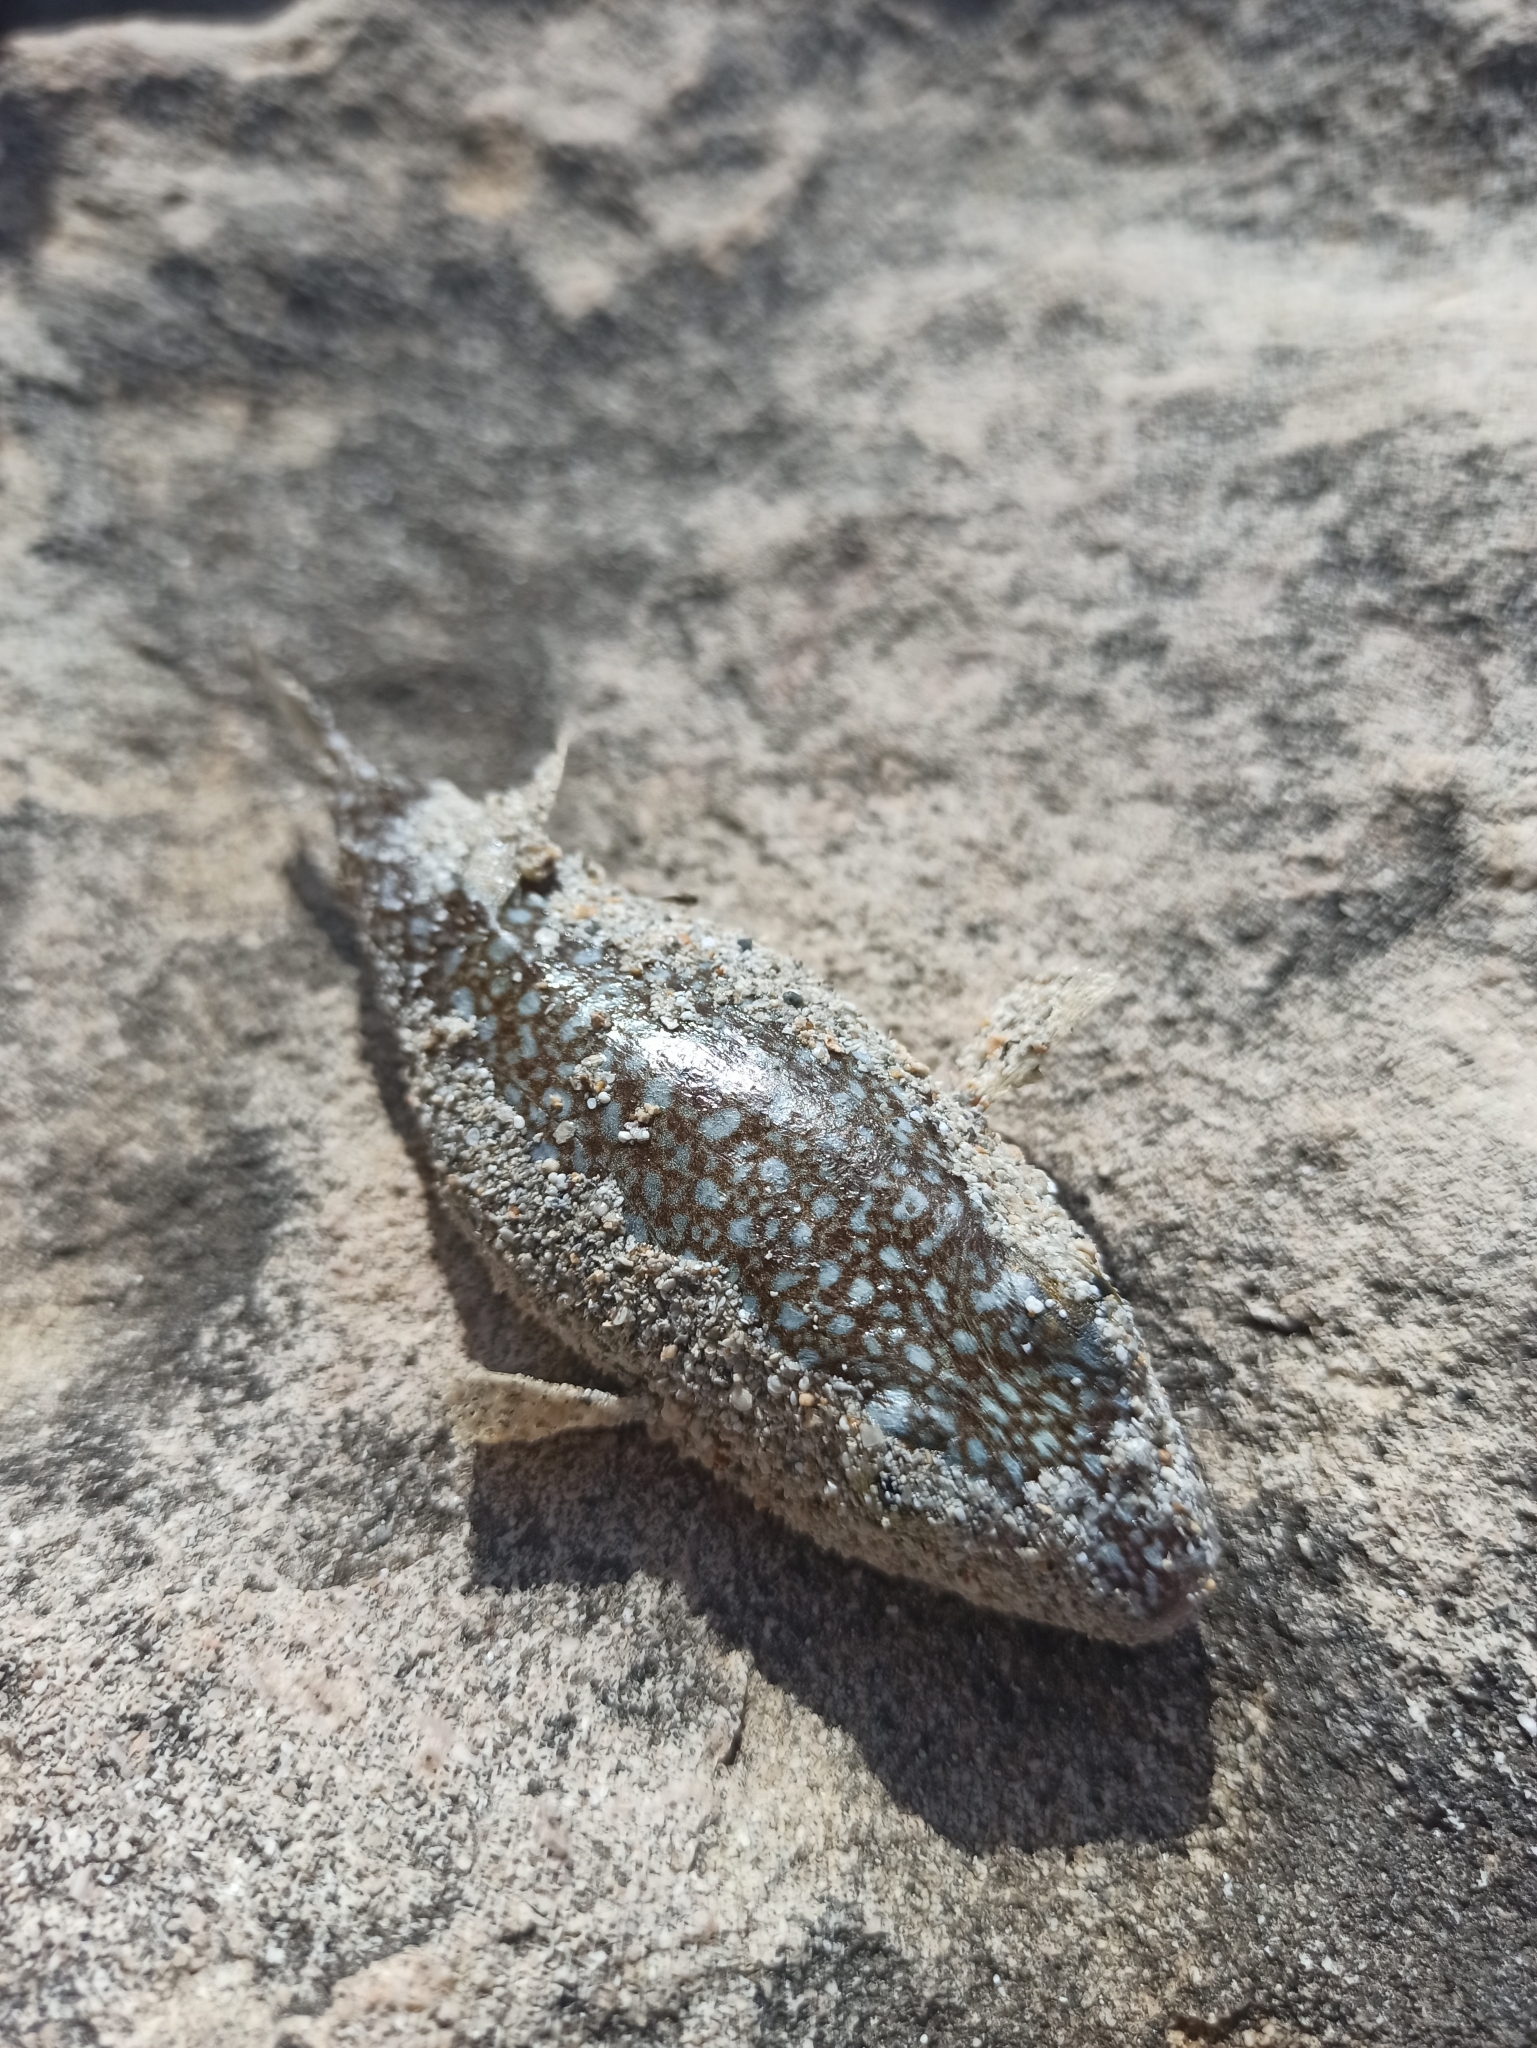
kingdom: Animalia
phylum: Chordata
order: Tetraodontiformes
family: Tetraodontidae
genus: Torquigener
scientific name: Torquigener flavimaculosus
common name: Studded pufferfish
